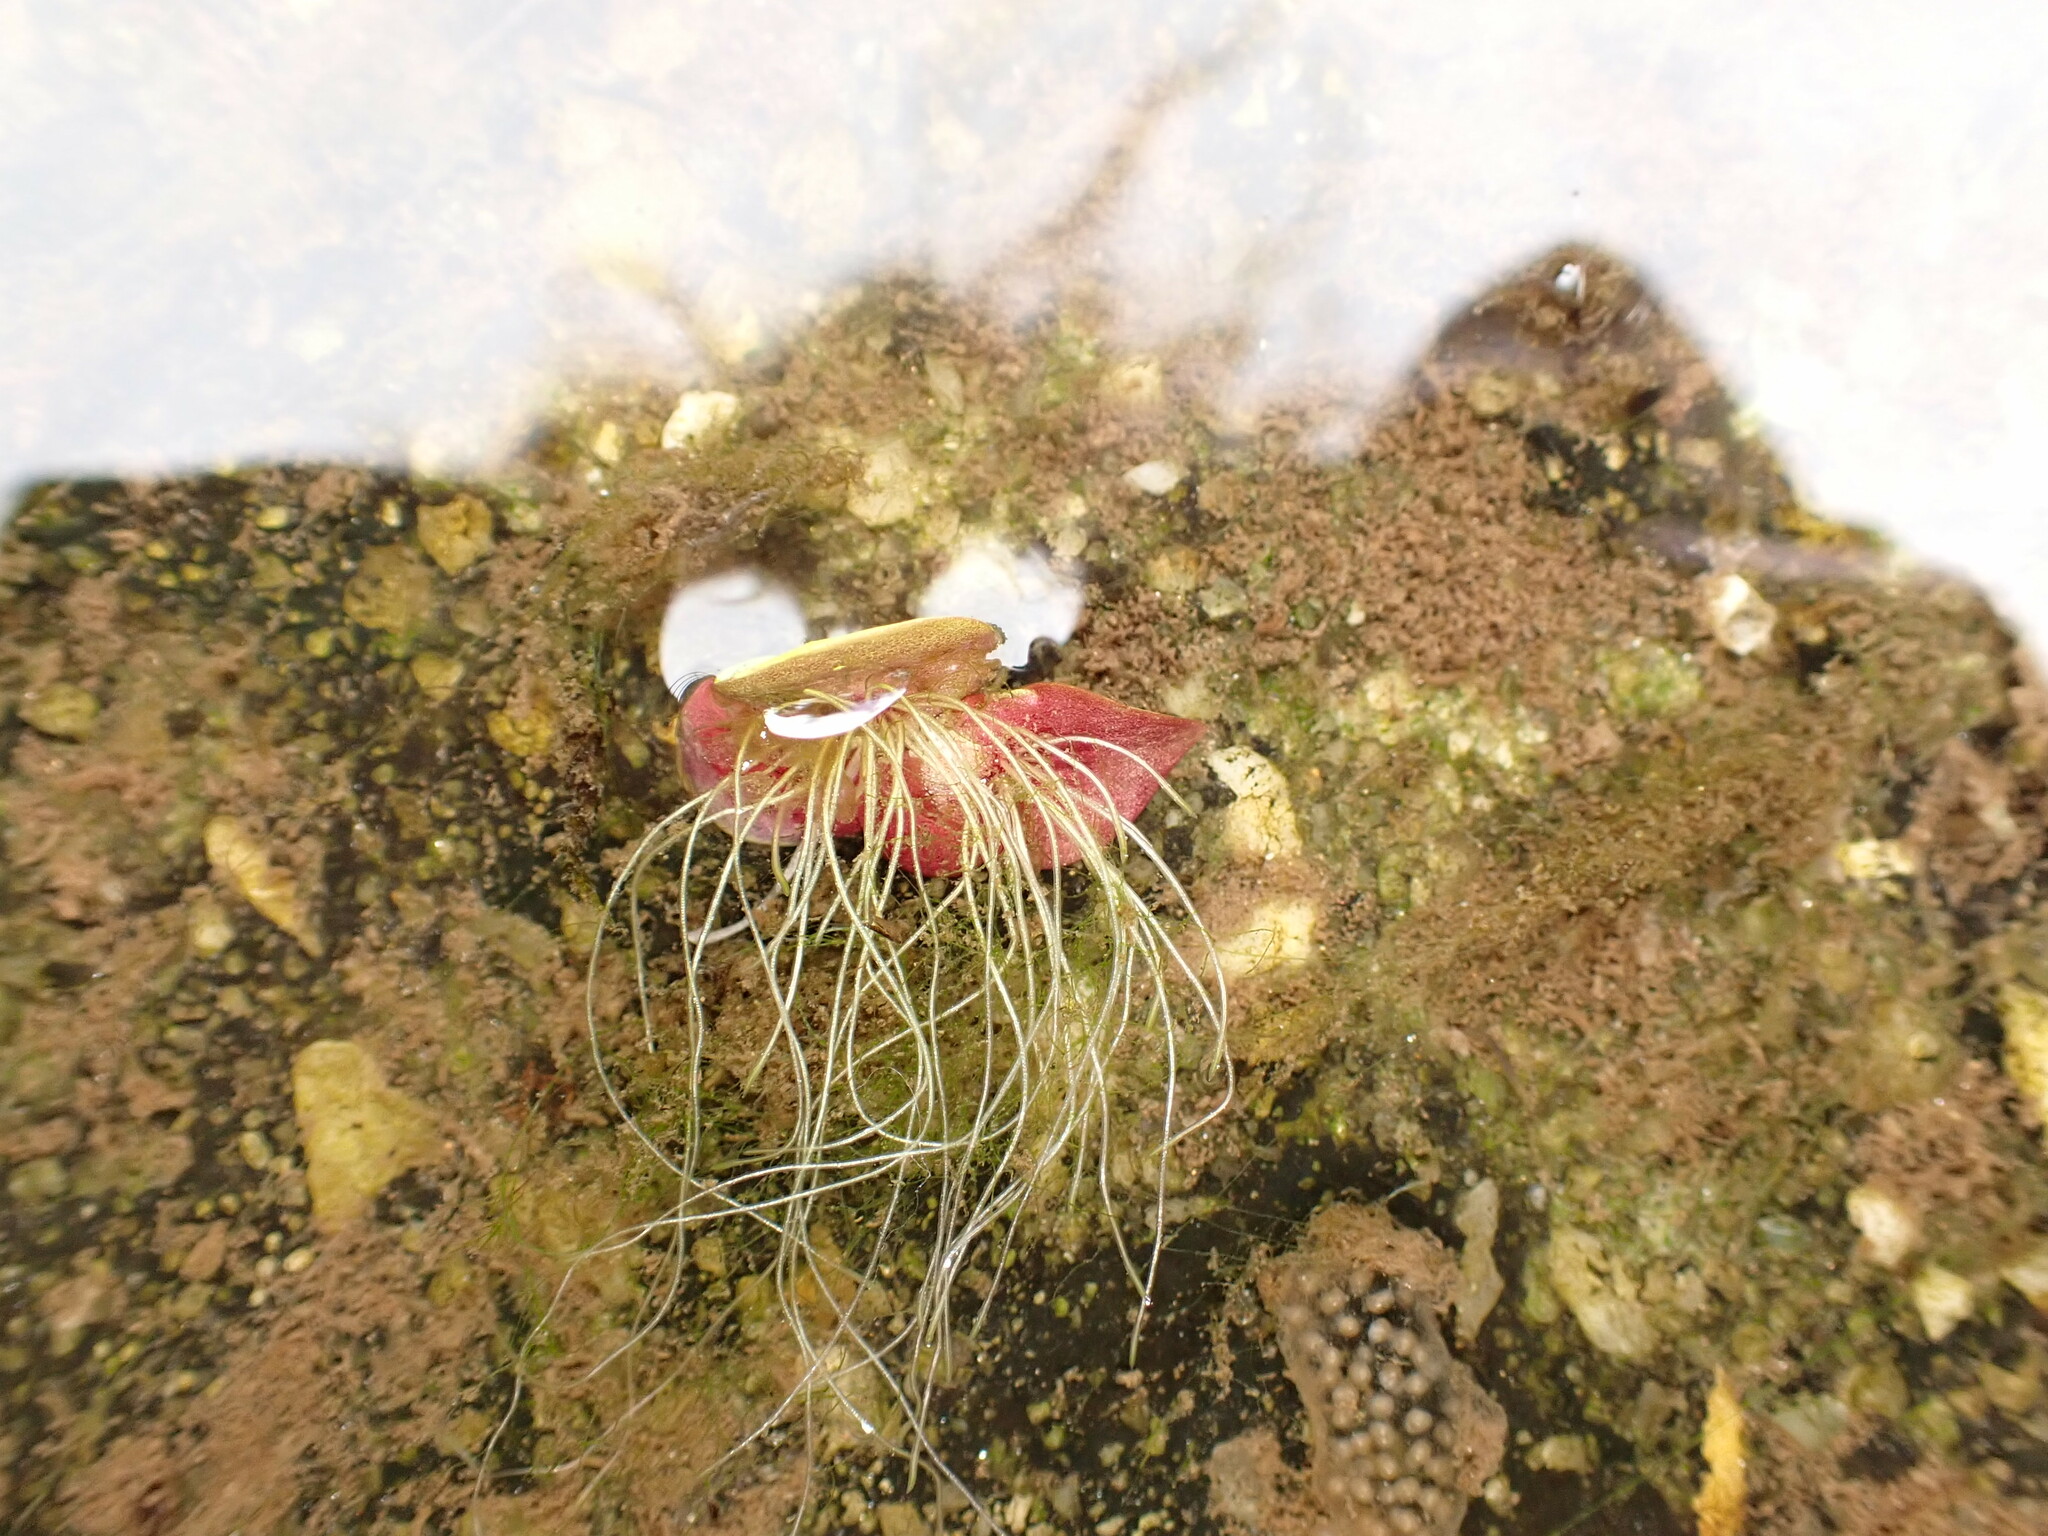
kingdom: Plantae
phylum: Tracheophyta
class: Liliopsida
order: Alismatales
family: Araceae
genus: Spirodela
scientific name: Spirodela polyrhiza
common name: Great duckweed
